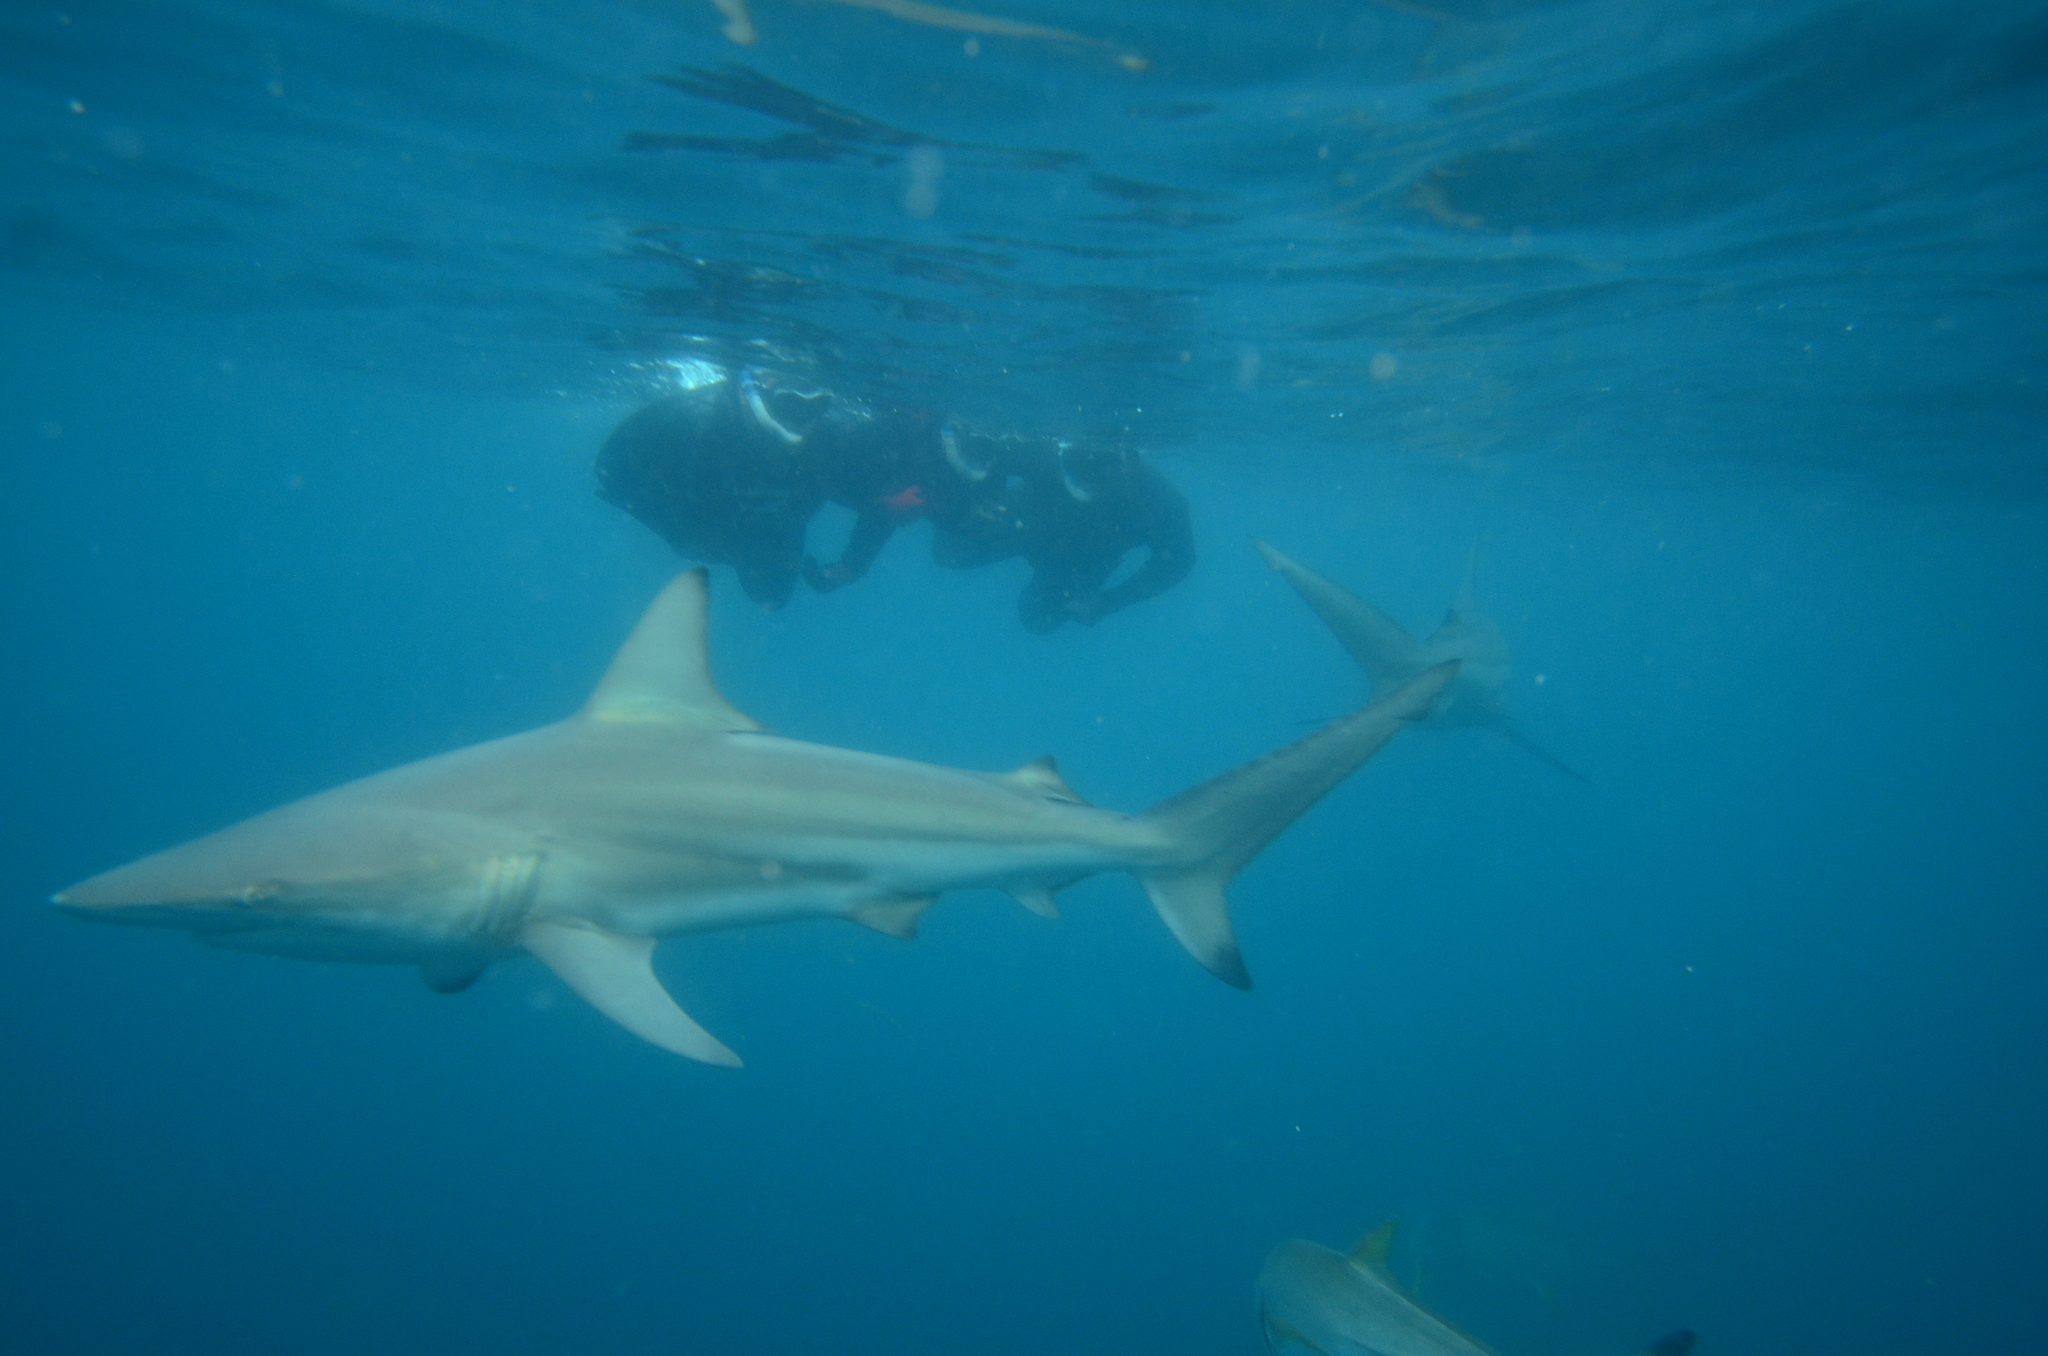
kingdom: Animalia
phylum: Chordata
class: Elasmobranchii
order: Carcharhiniformes
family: Carcharhinidae
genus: Carcharhinus
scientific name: Carcharhinus limbatus
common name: Blacktip shark
